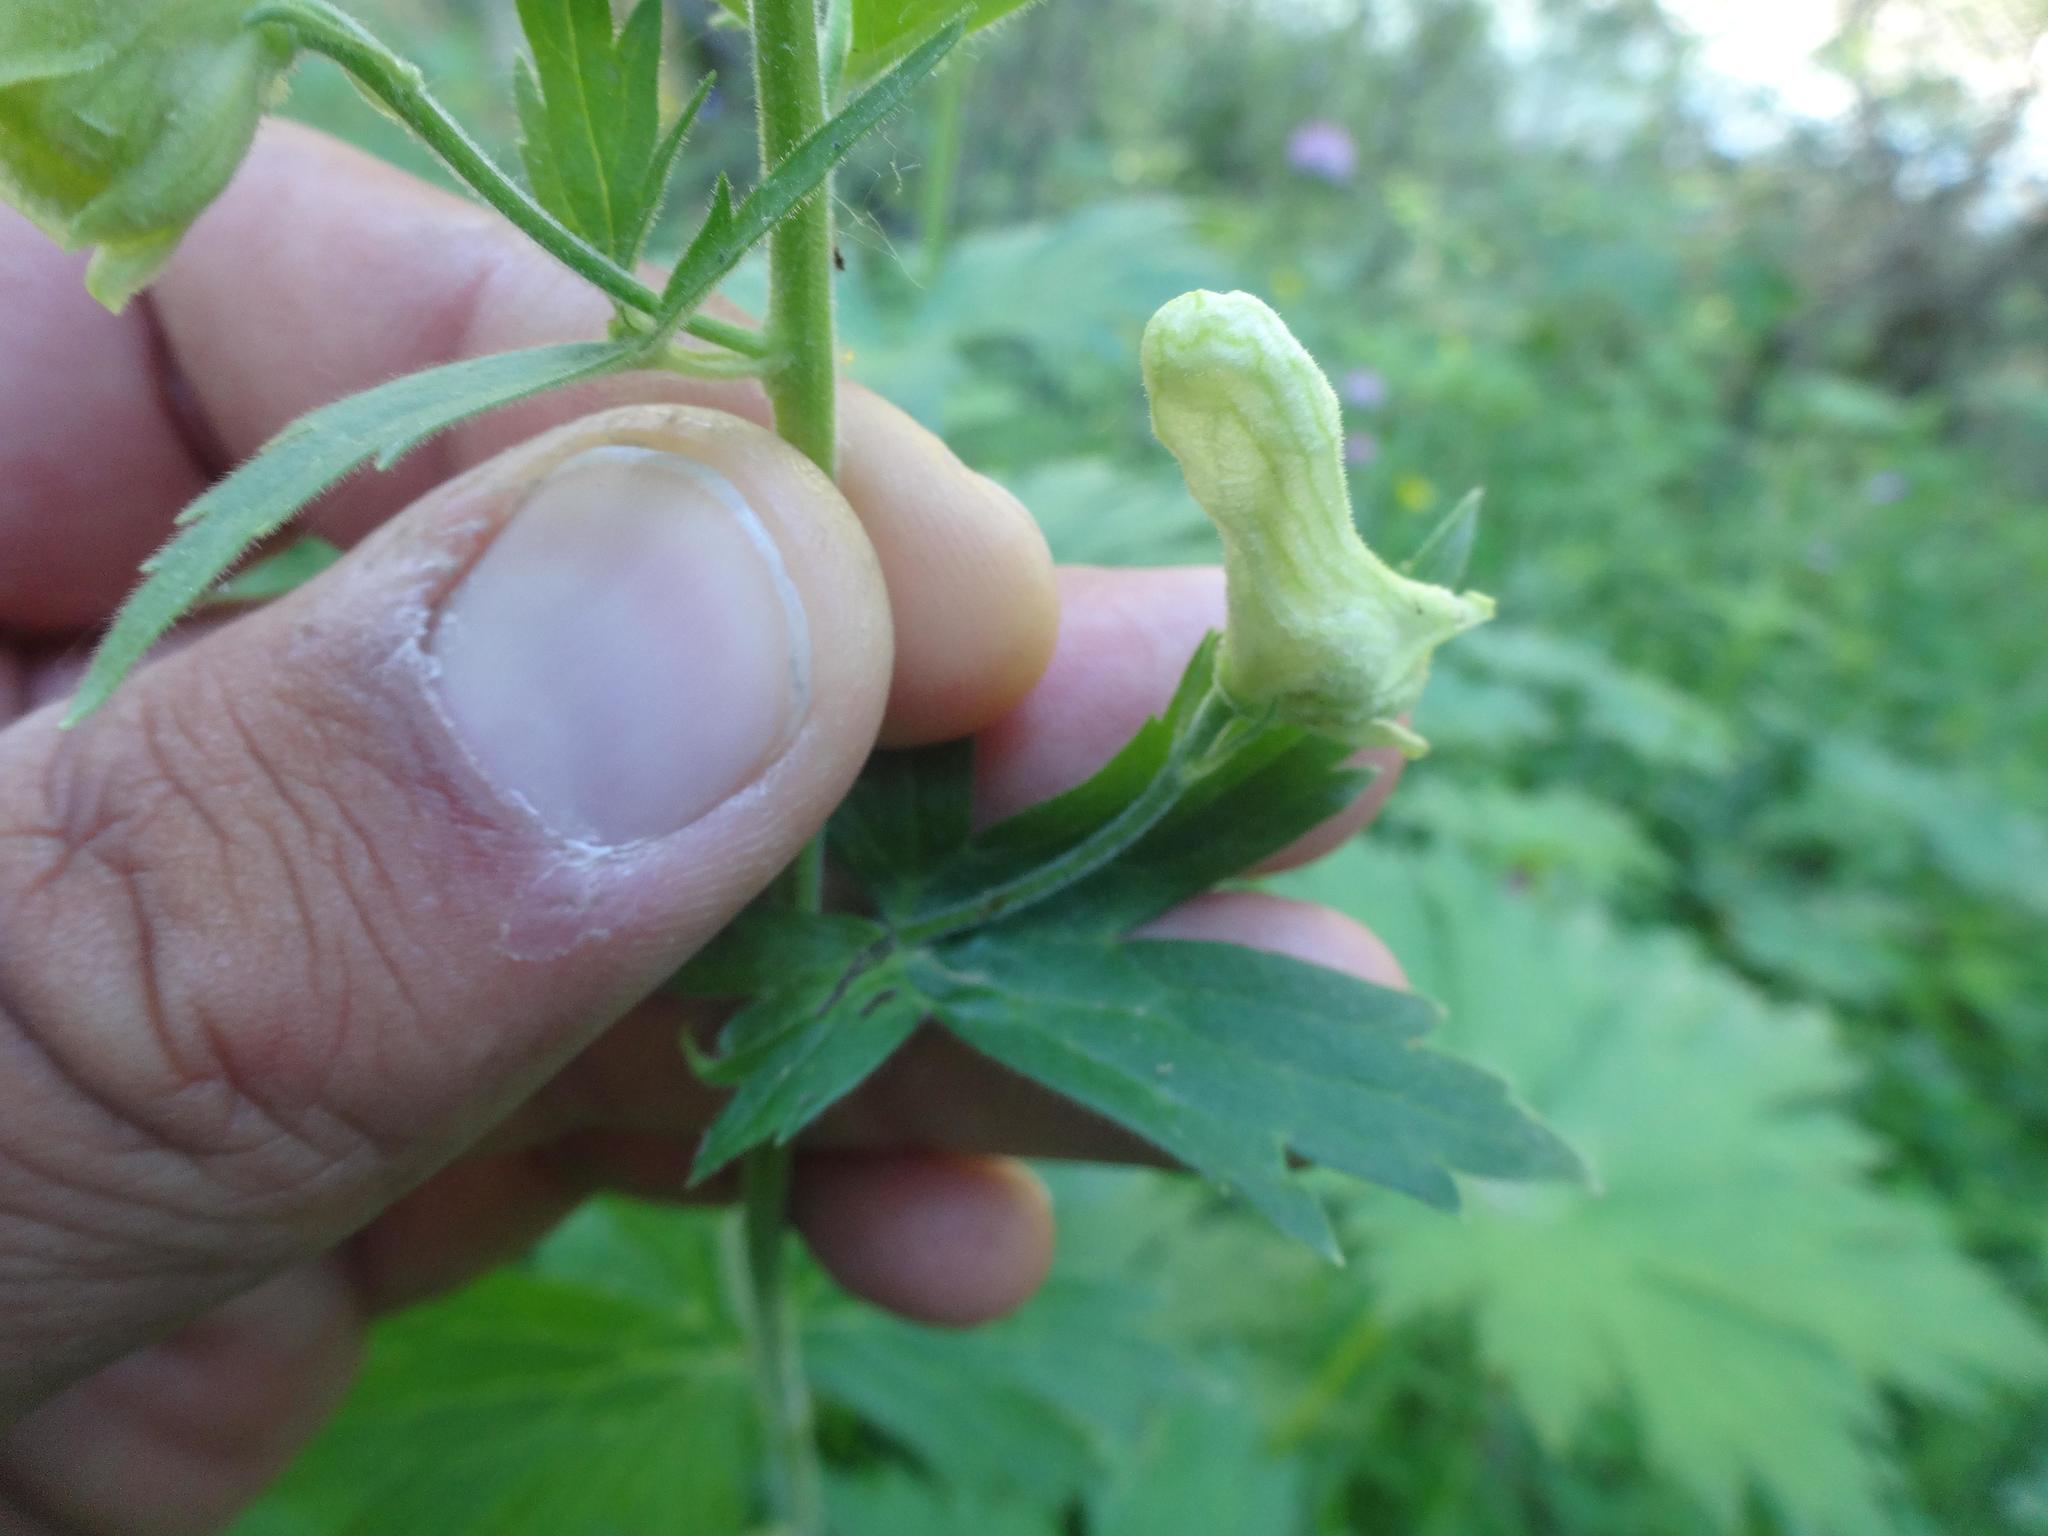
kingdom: Plantae
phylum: Tracheophyta
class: Magnoliopsida
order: Ranunculales
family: Ranunculaceae
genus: Aconitum
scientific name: Aconitum lycoctonum
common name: Wolf's-bane
